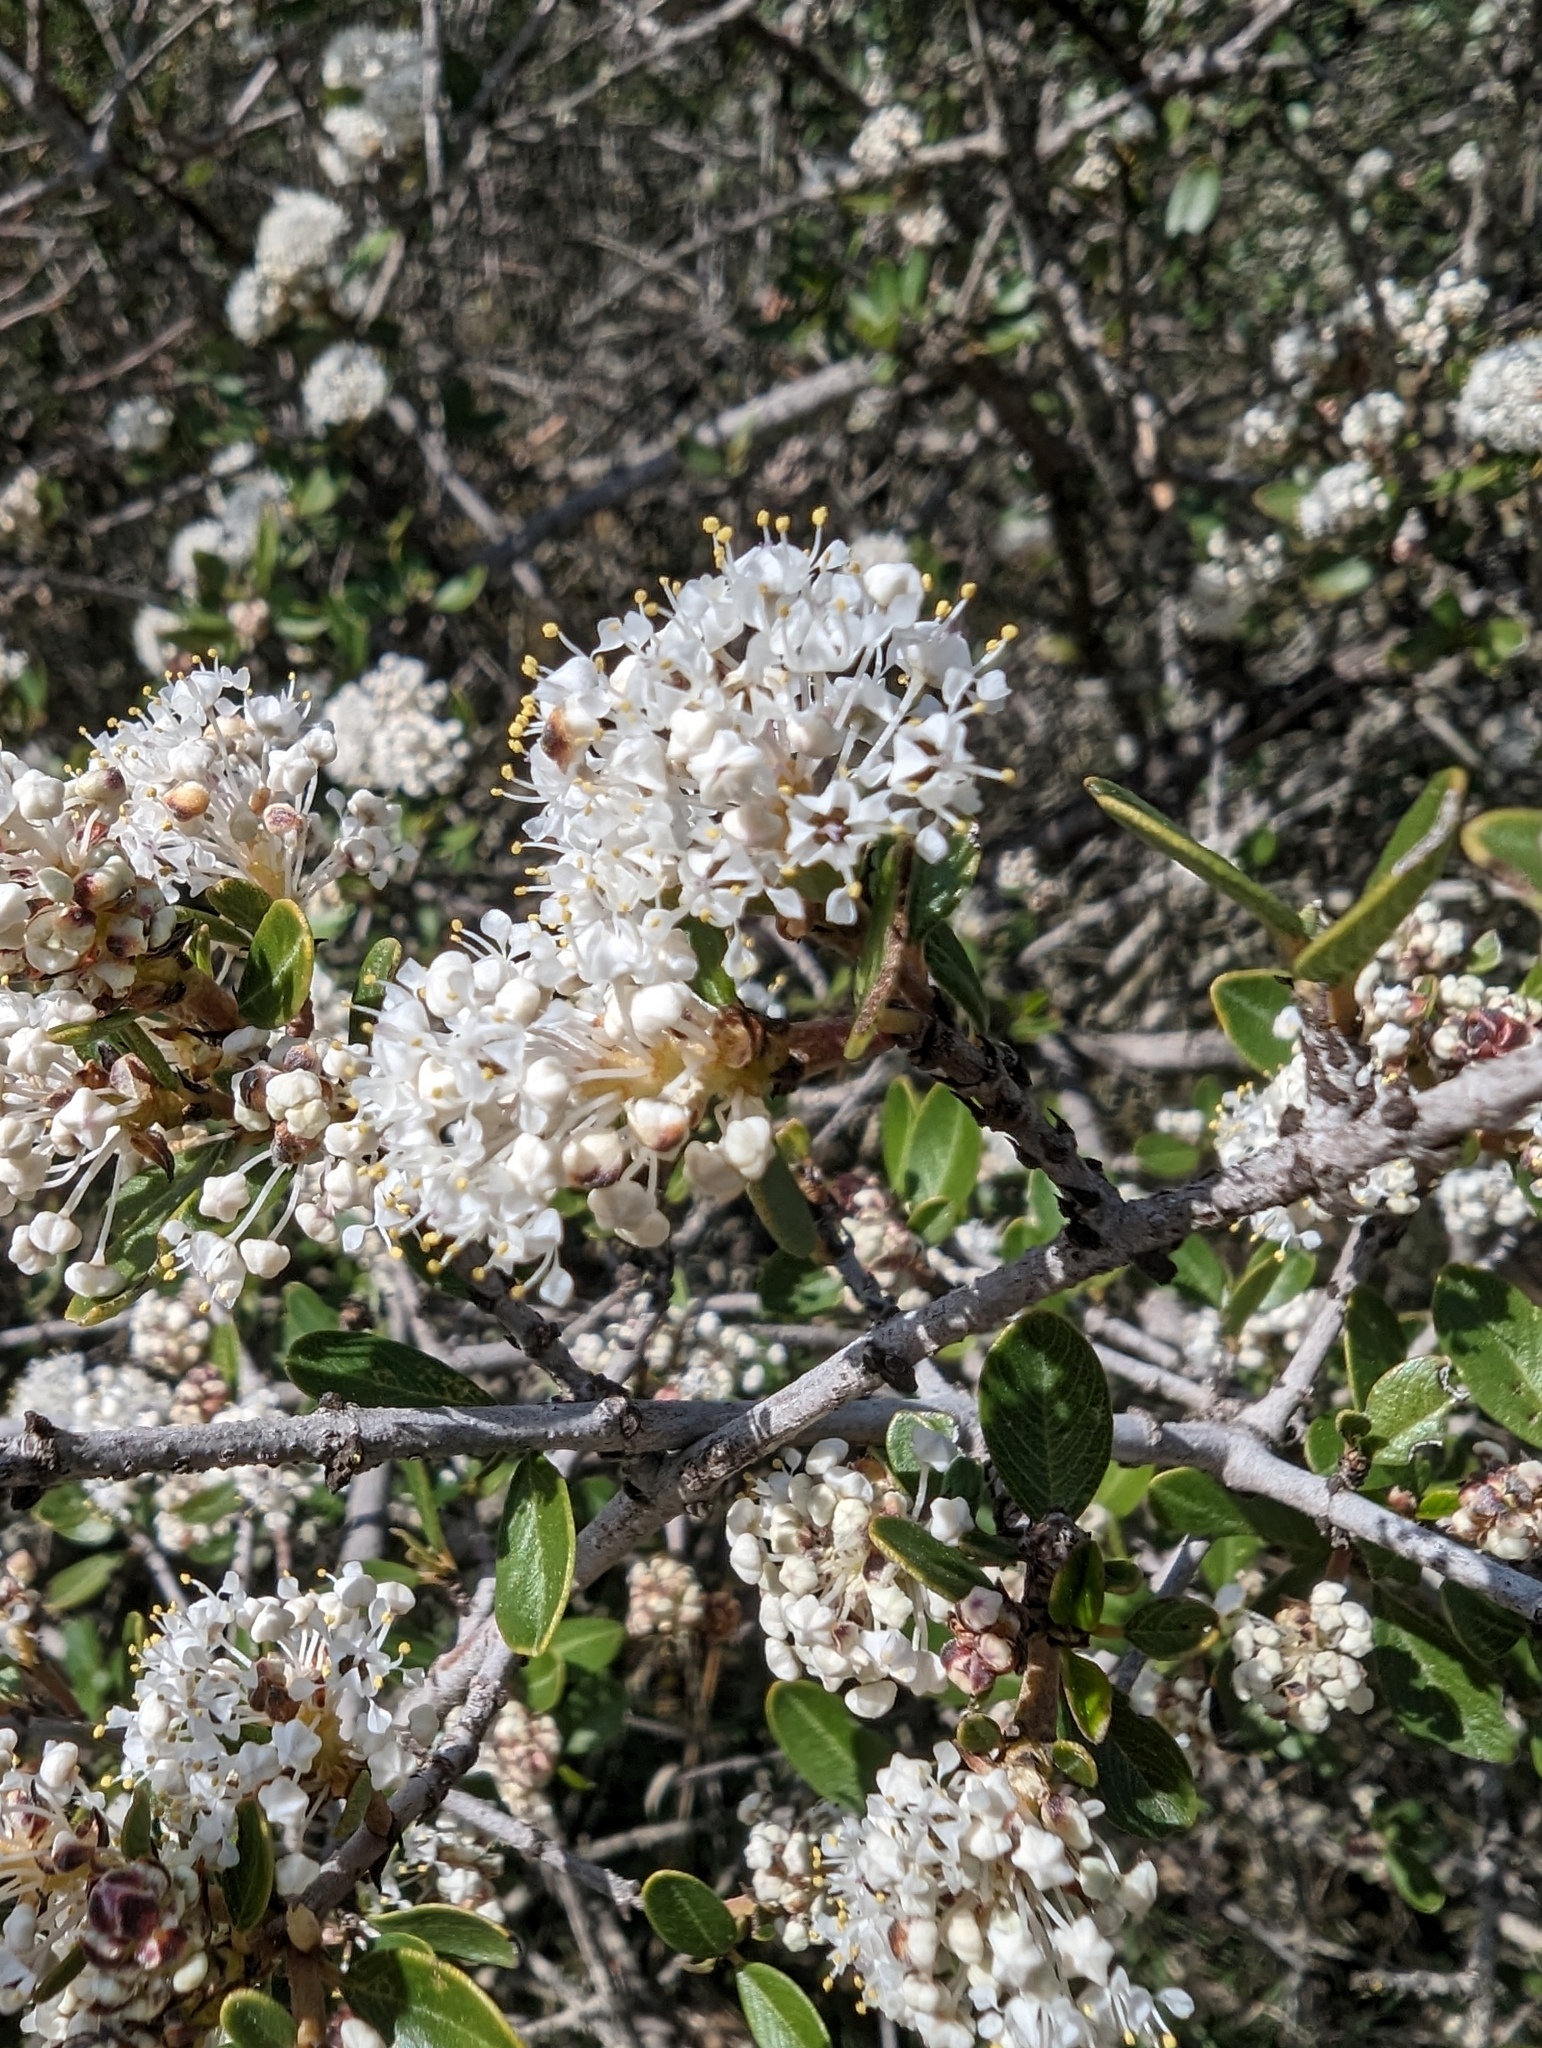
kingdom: Plantae
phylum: Tracheophyta
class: Magnoliopsida
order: Rosales
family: Rhamnaceae
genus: Ceanothus
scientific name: Ceanothus cuneatus
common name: Cuneate ceanothus
